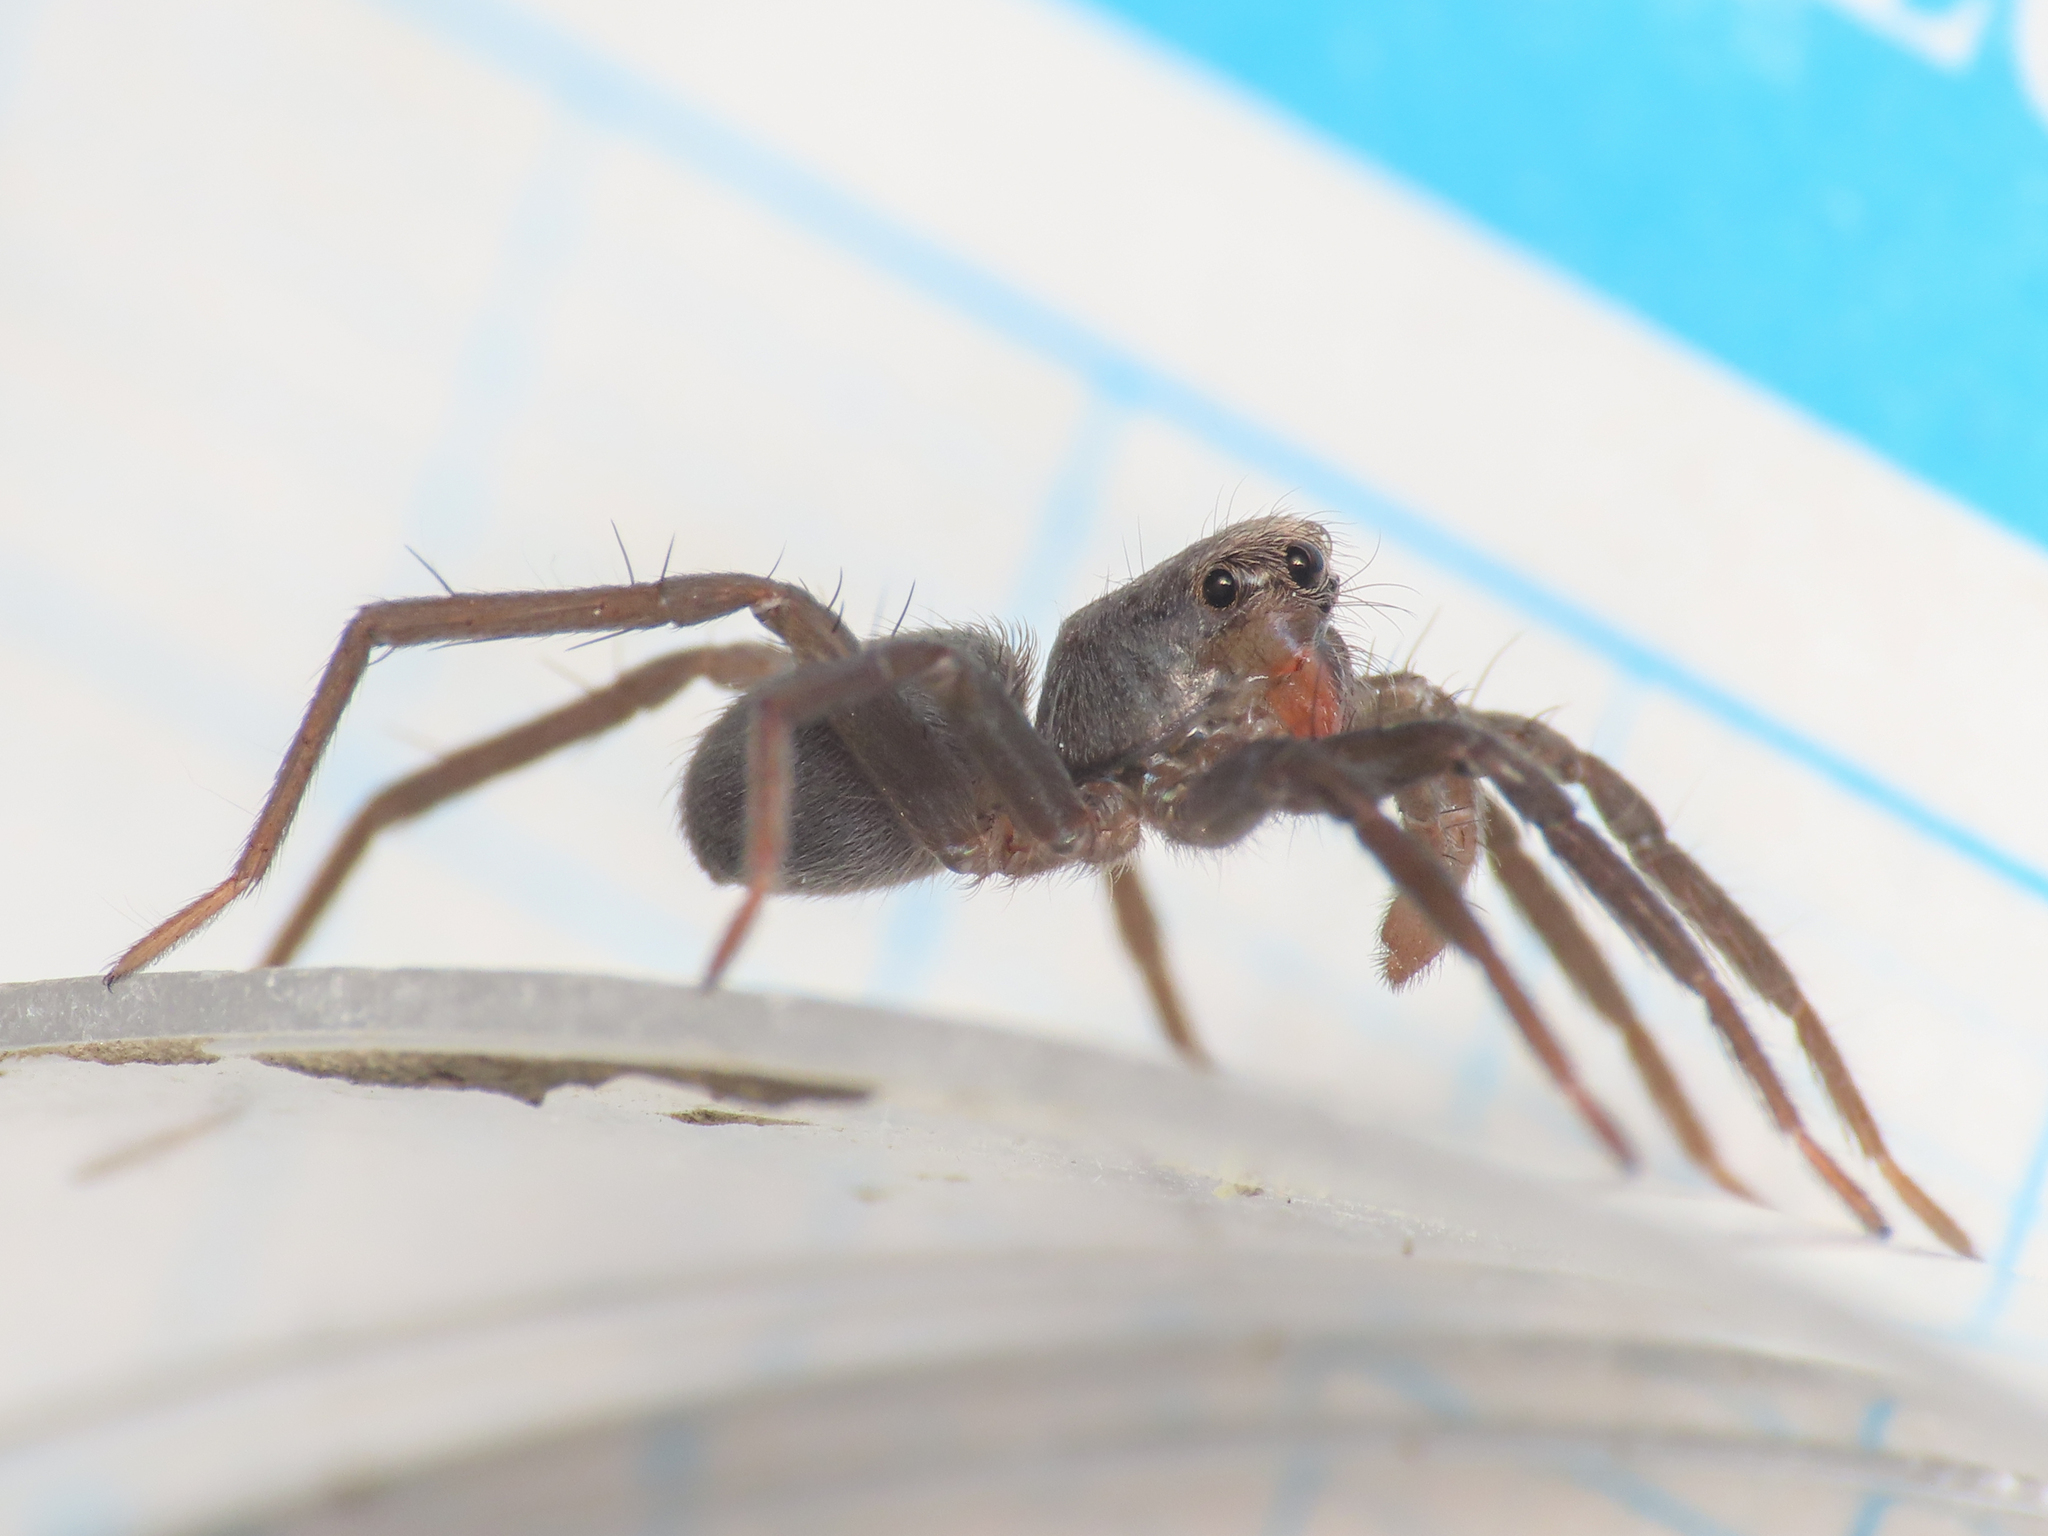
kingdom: Animalia
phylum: Arthropoda
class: Arachnida
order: Araneae
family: Lycosidae
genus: Trabea
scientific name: Trabea paradoxa
